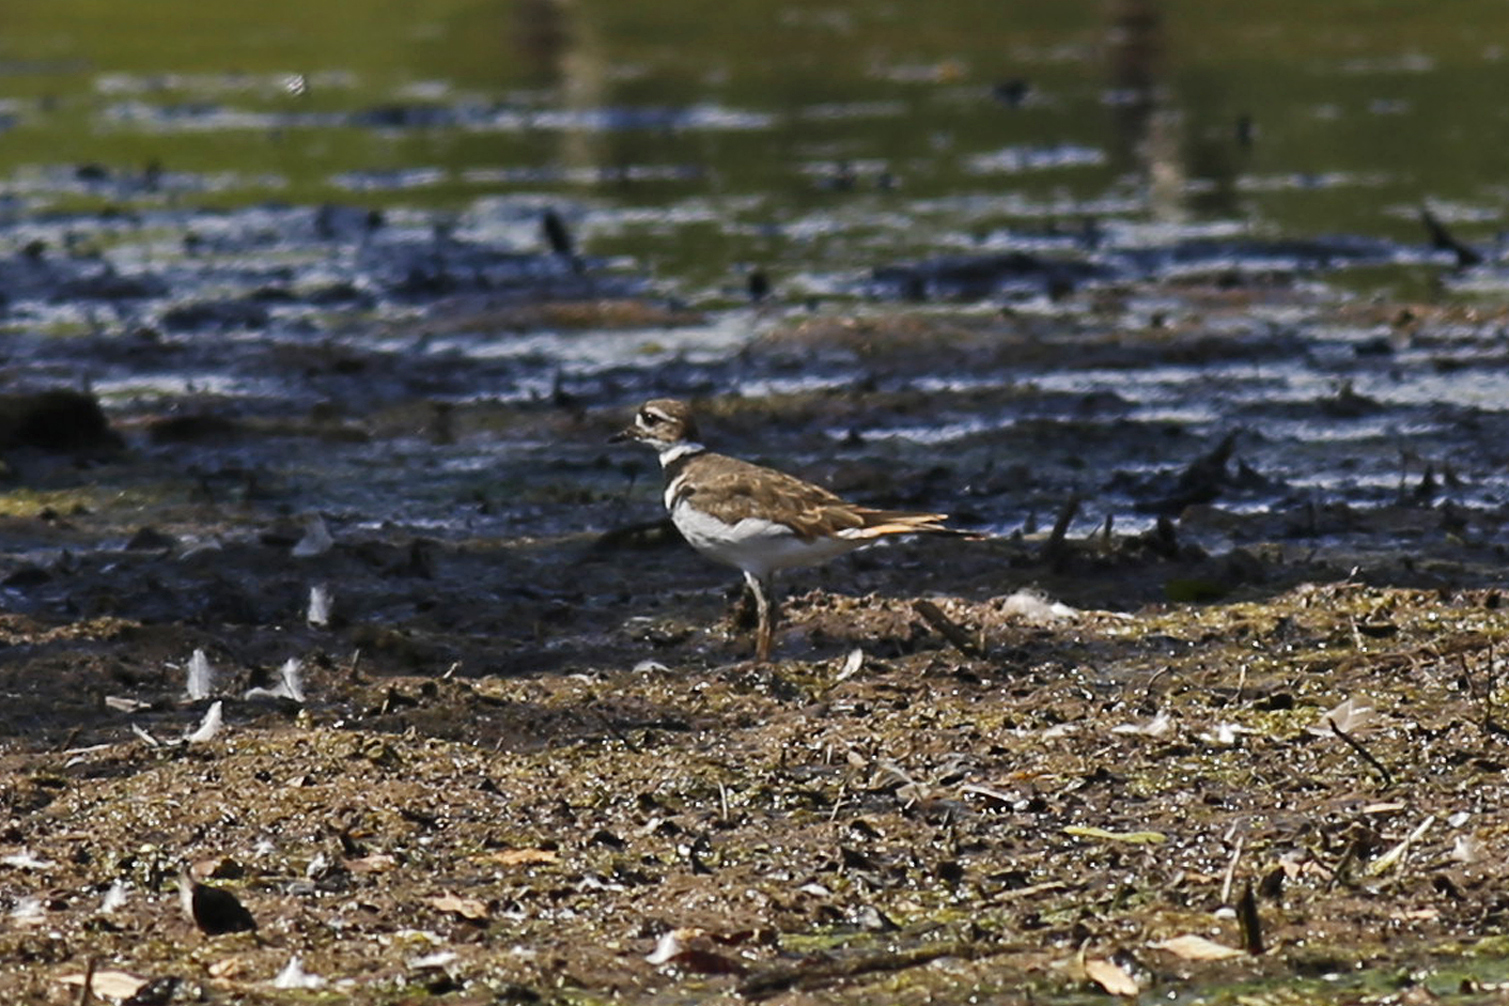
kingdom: Animalia
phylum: Chordata
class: Aves
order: Charadriiformes
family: Charadriidae
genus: Charadrius
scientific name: Charadrius vociferus
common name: Killdeer
